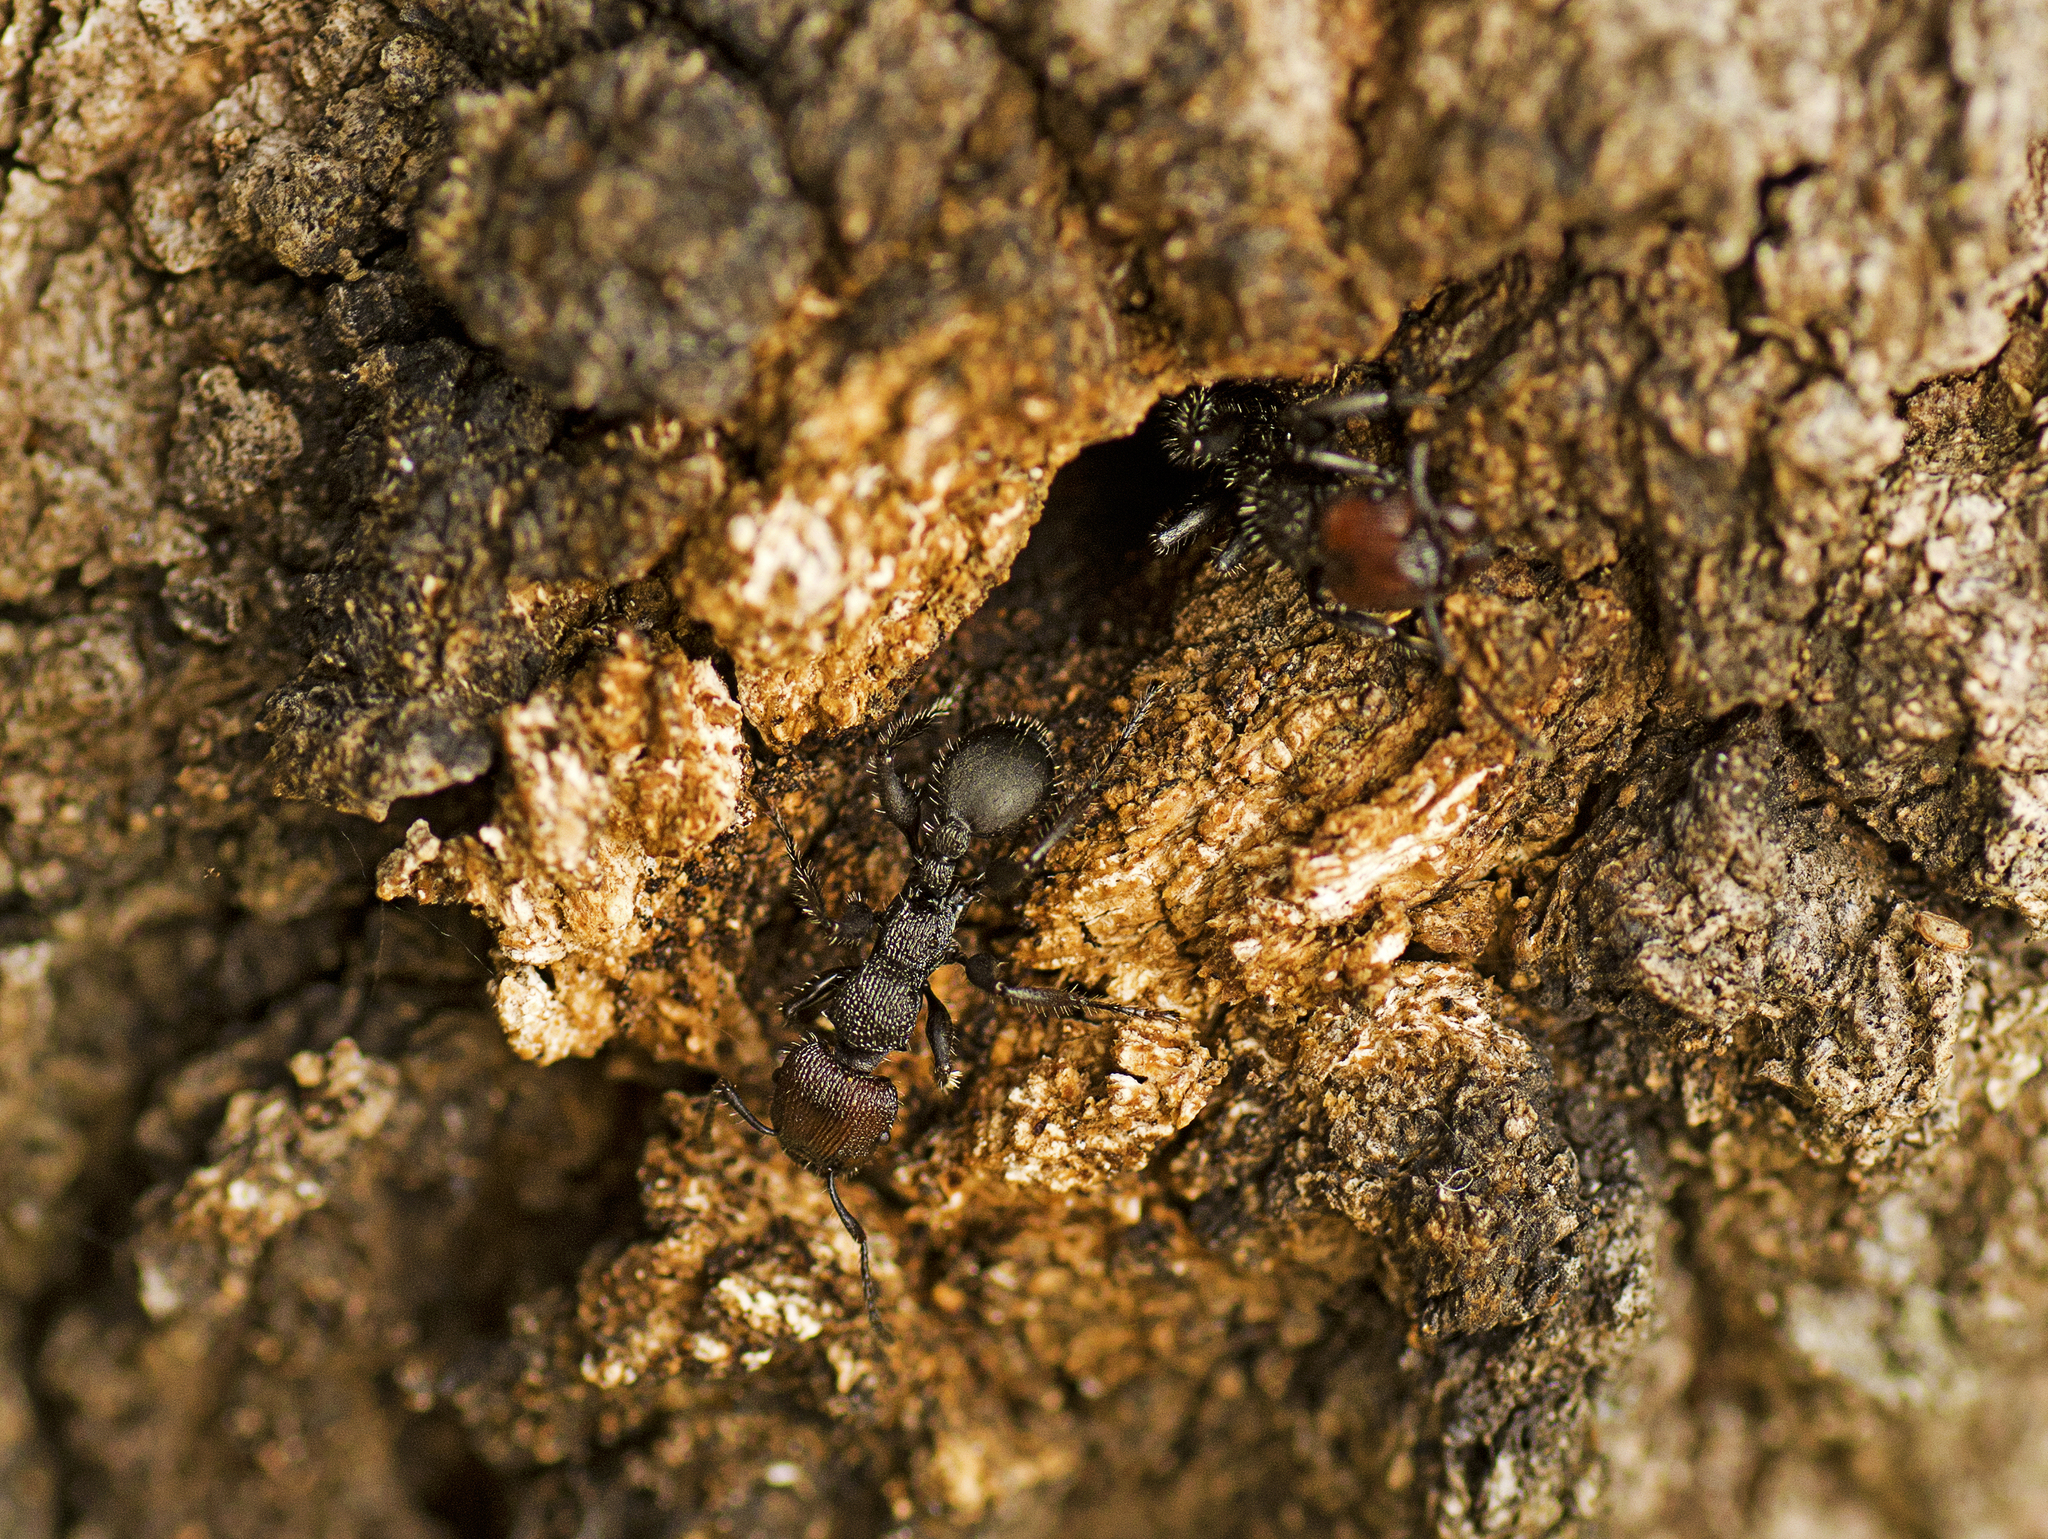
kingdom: Animalia
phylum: Arthropoda
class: Insecta
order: Hymenoptera
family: Formicidae
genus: Podomyrma
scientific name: Podomyrma micans
